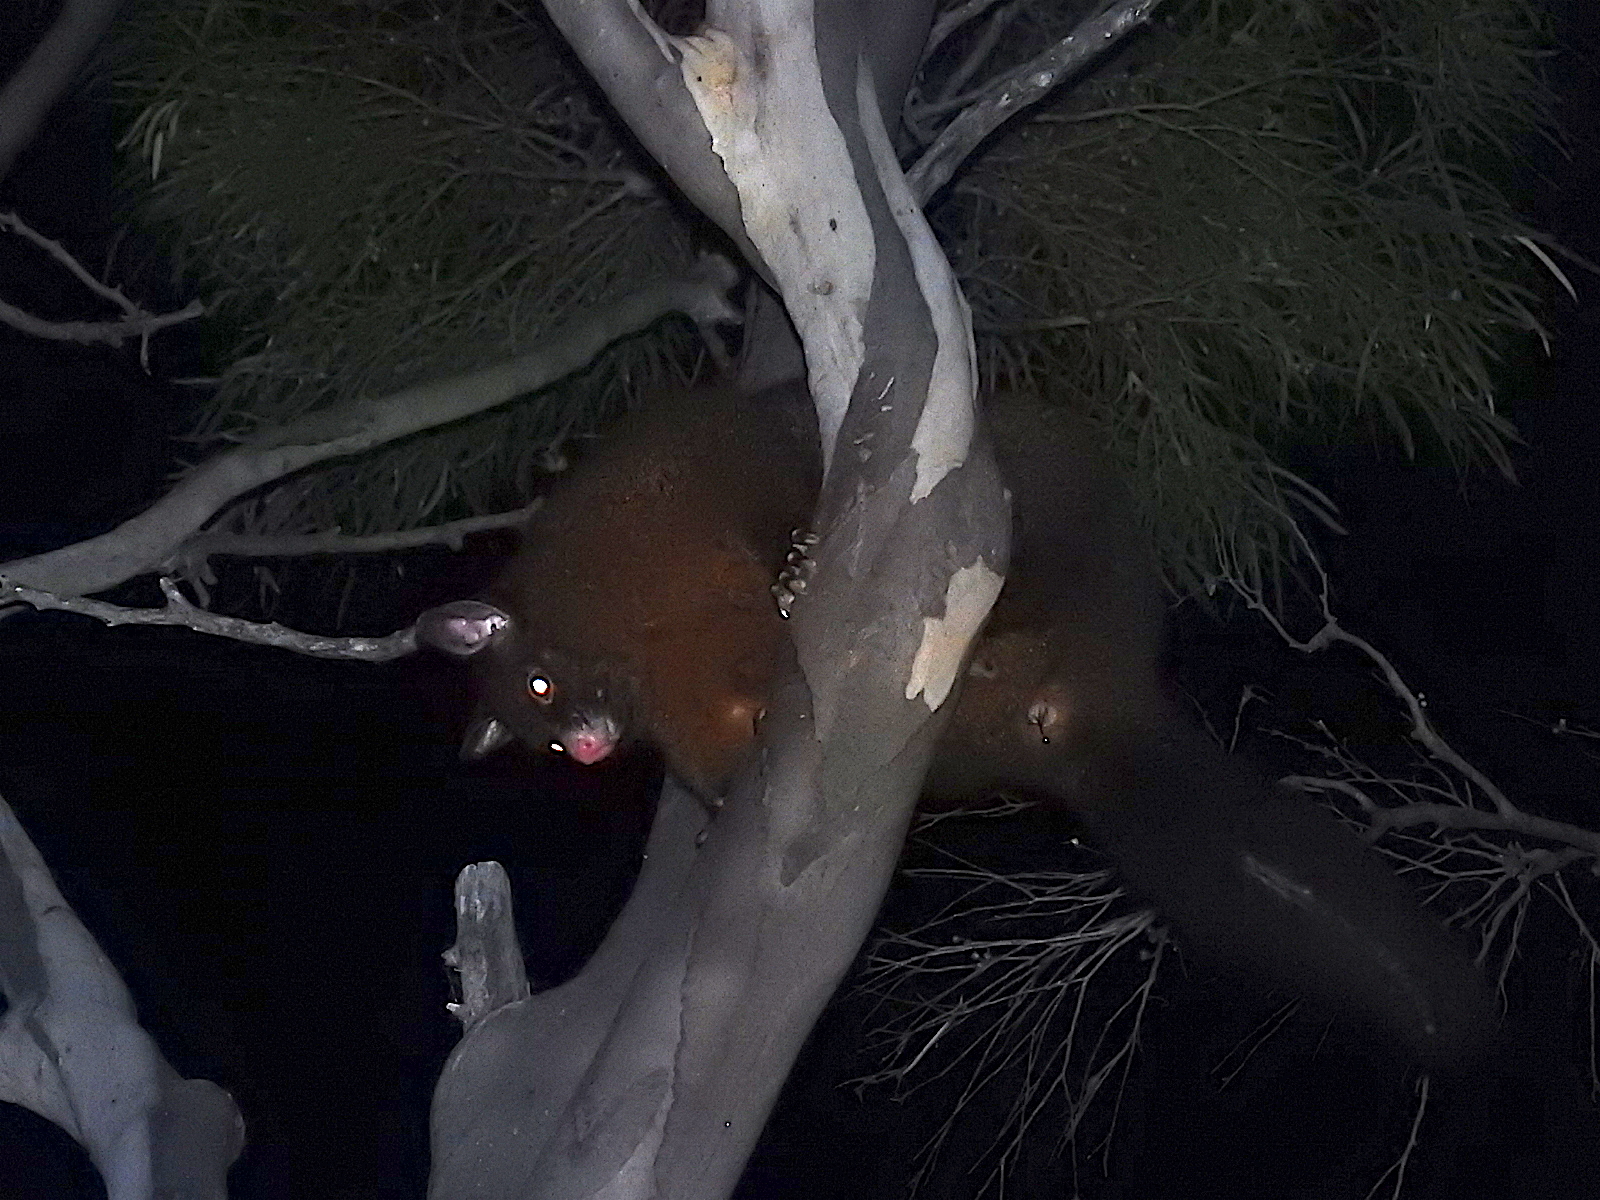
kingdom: Animalia
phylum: Chordata
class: Mammalia
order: Diprotodontia
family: Phalangeridae
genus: Trichosurus
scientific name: Trichosurus vulpecula
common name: Common brushtail
